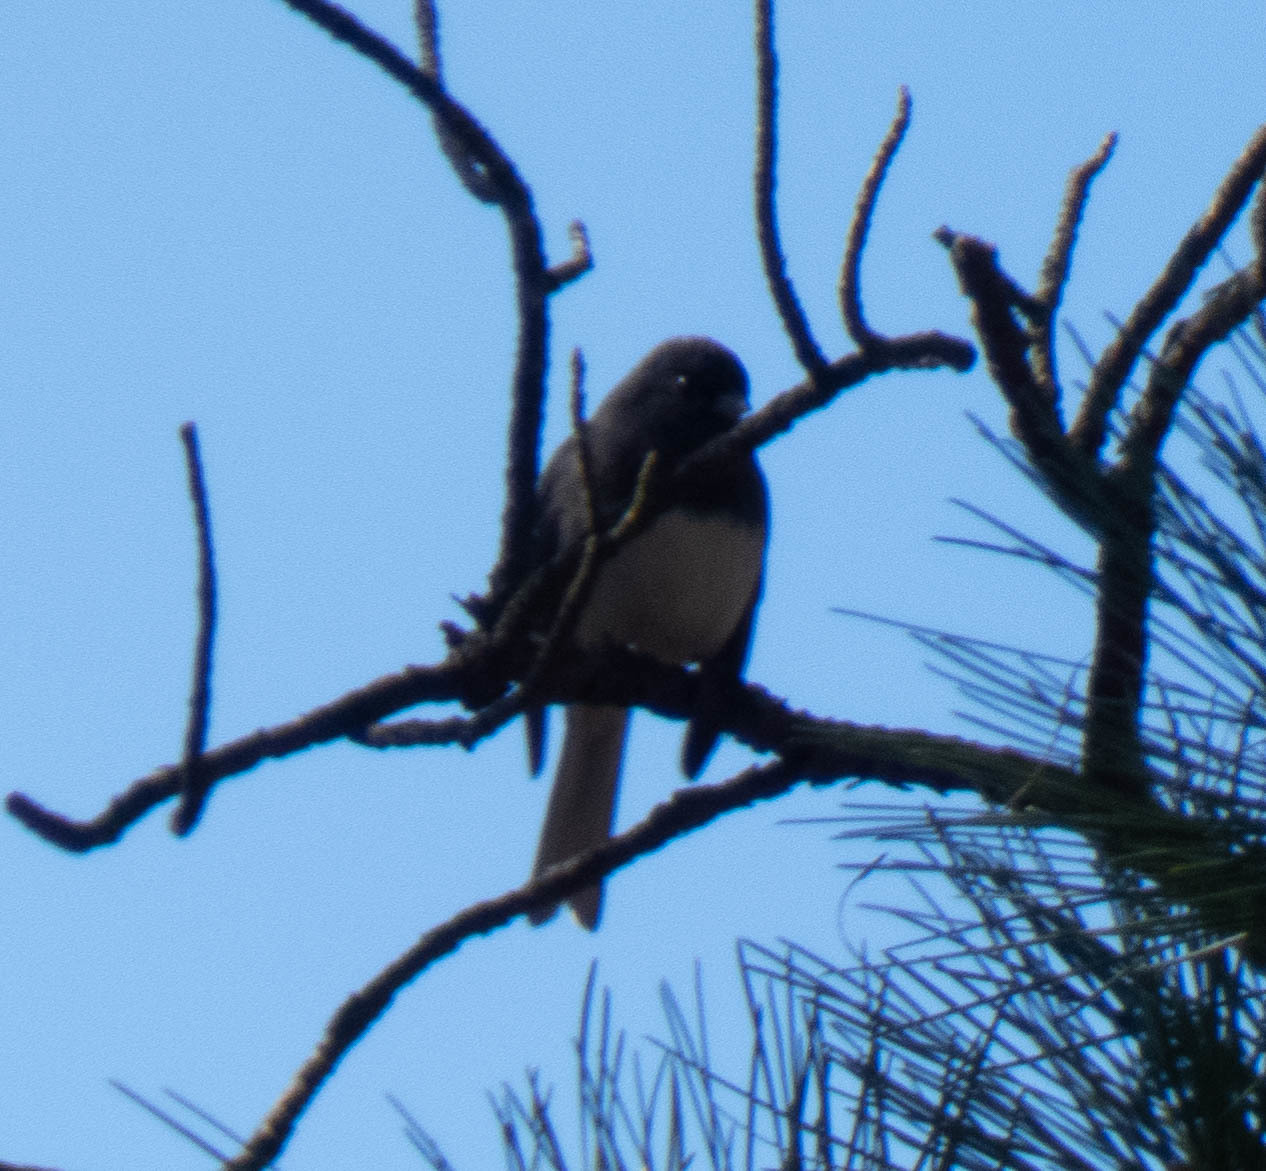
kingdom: Animalia
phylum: Chordata
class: Aves
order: Passeriformes
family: Passerellidae
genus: Junco
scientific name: Junco hyemalis
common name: Dark-eyed junco
